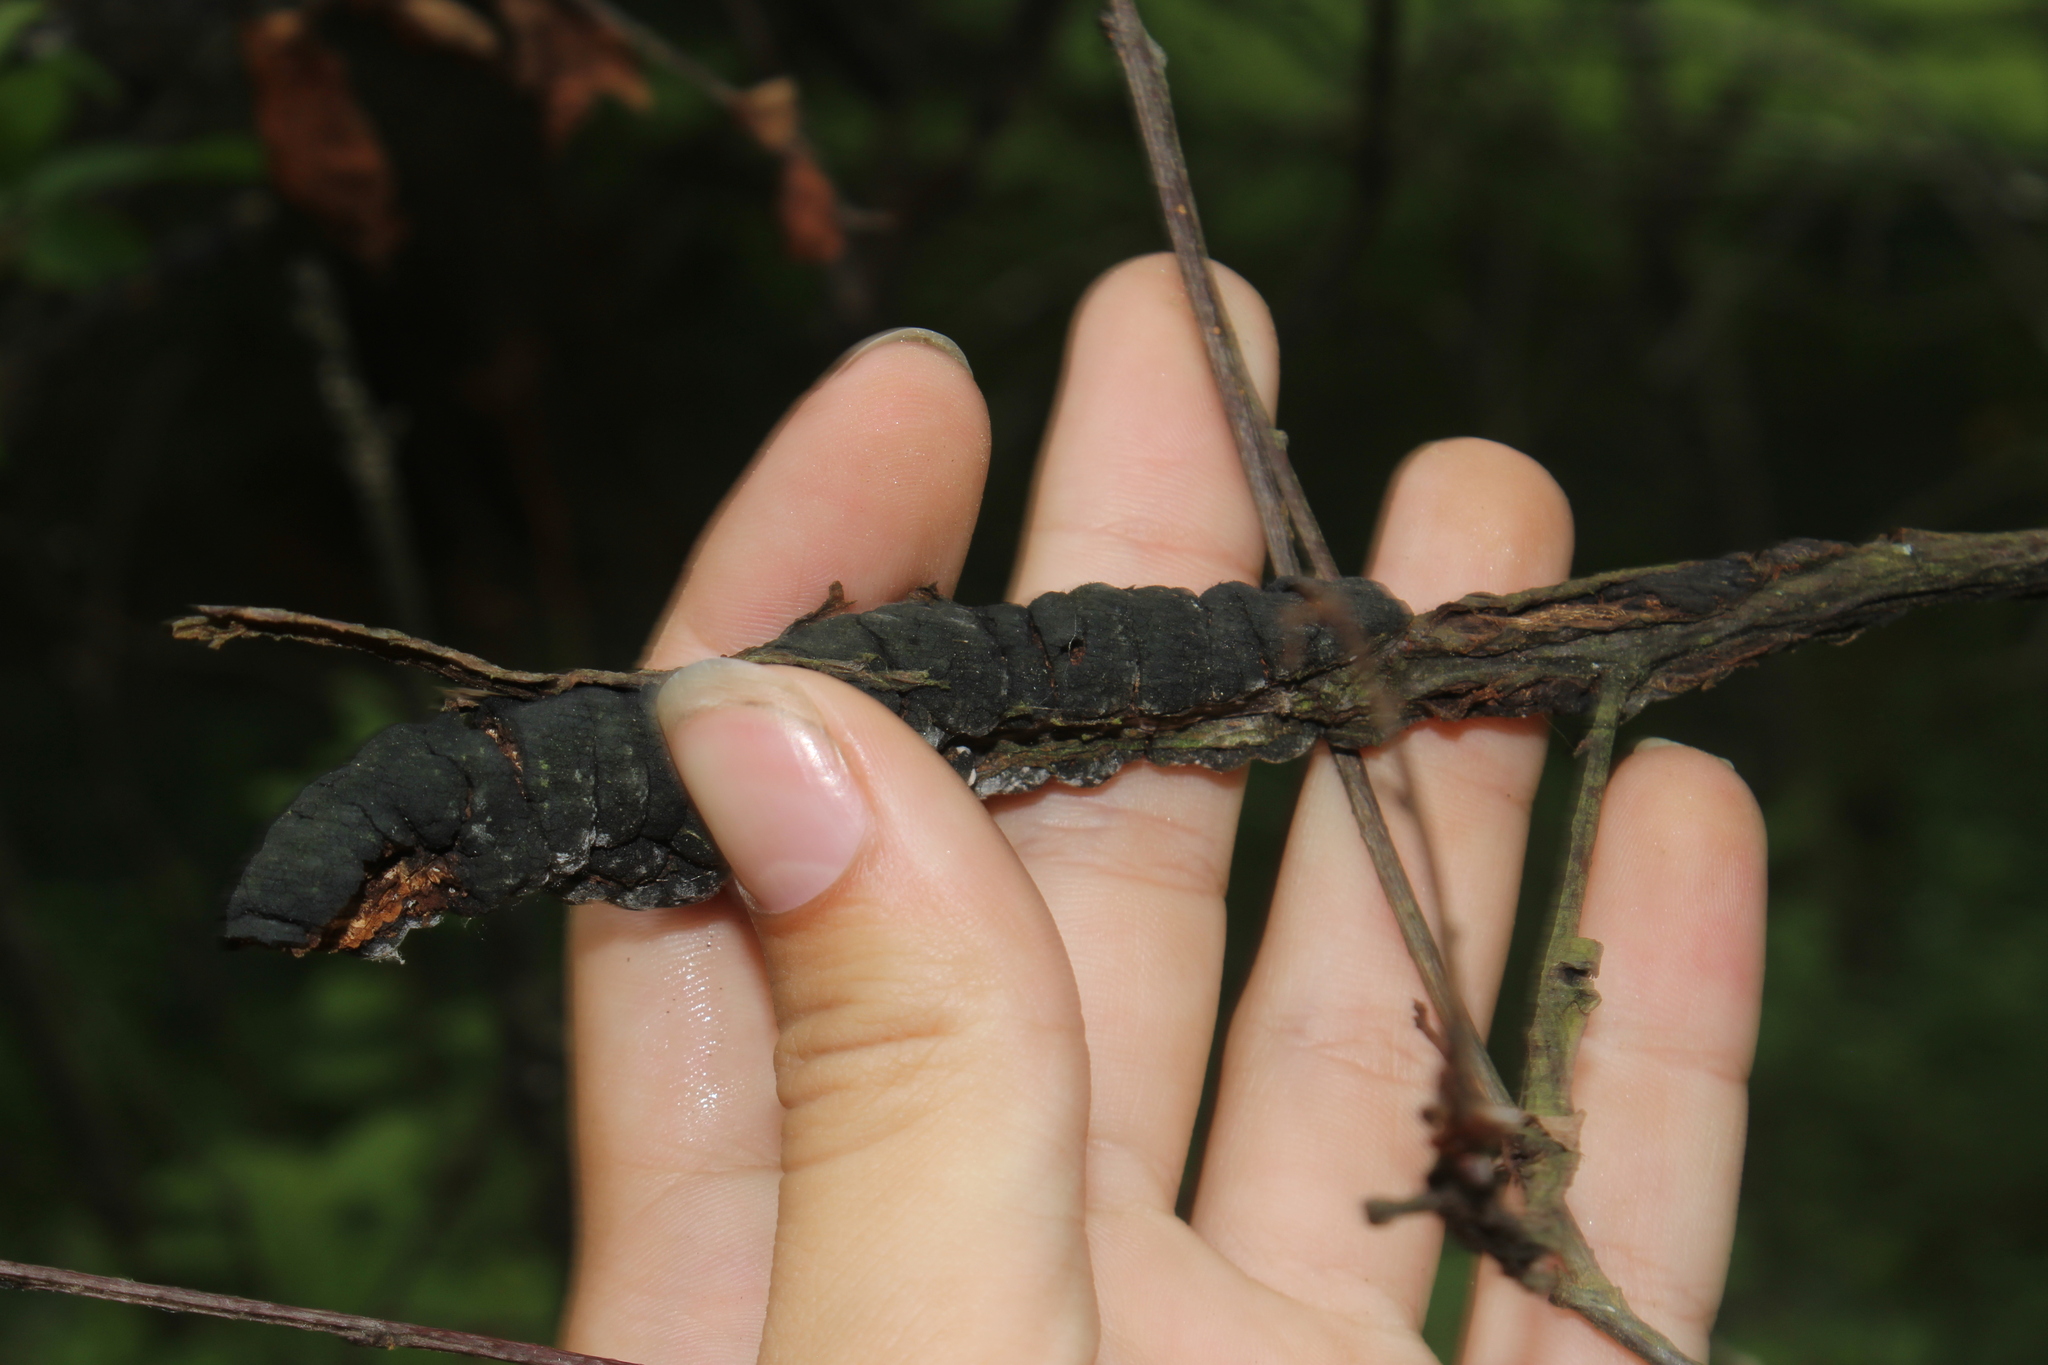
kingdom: Fungi
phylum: Ascomycota
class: Dothideomycetes
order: Venturiales
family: Venturiaceae
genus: Apiosporina
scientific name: Apiosporina morbosa
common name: Black knot
